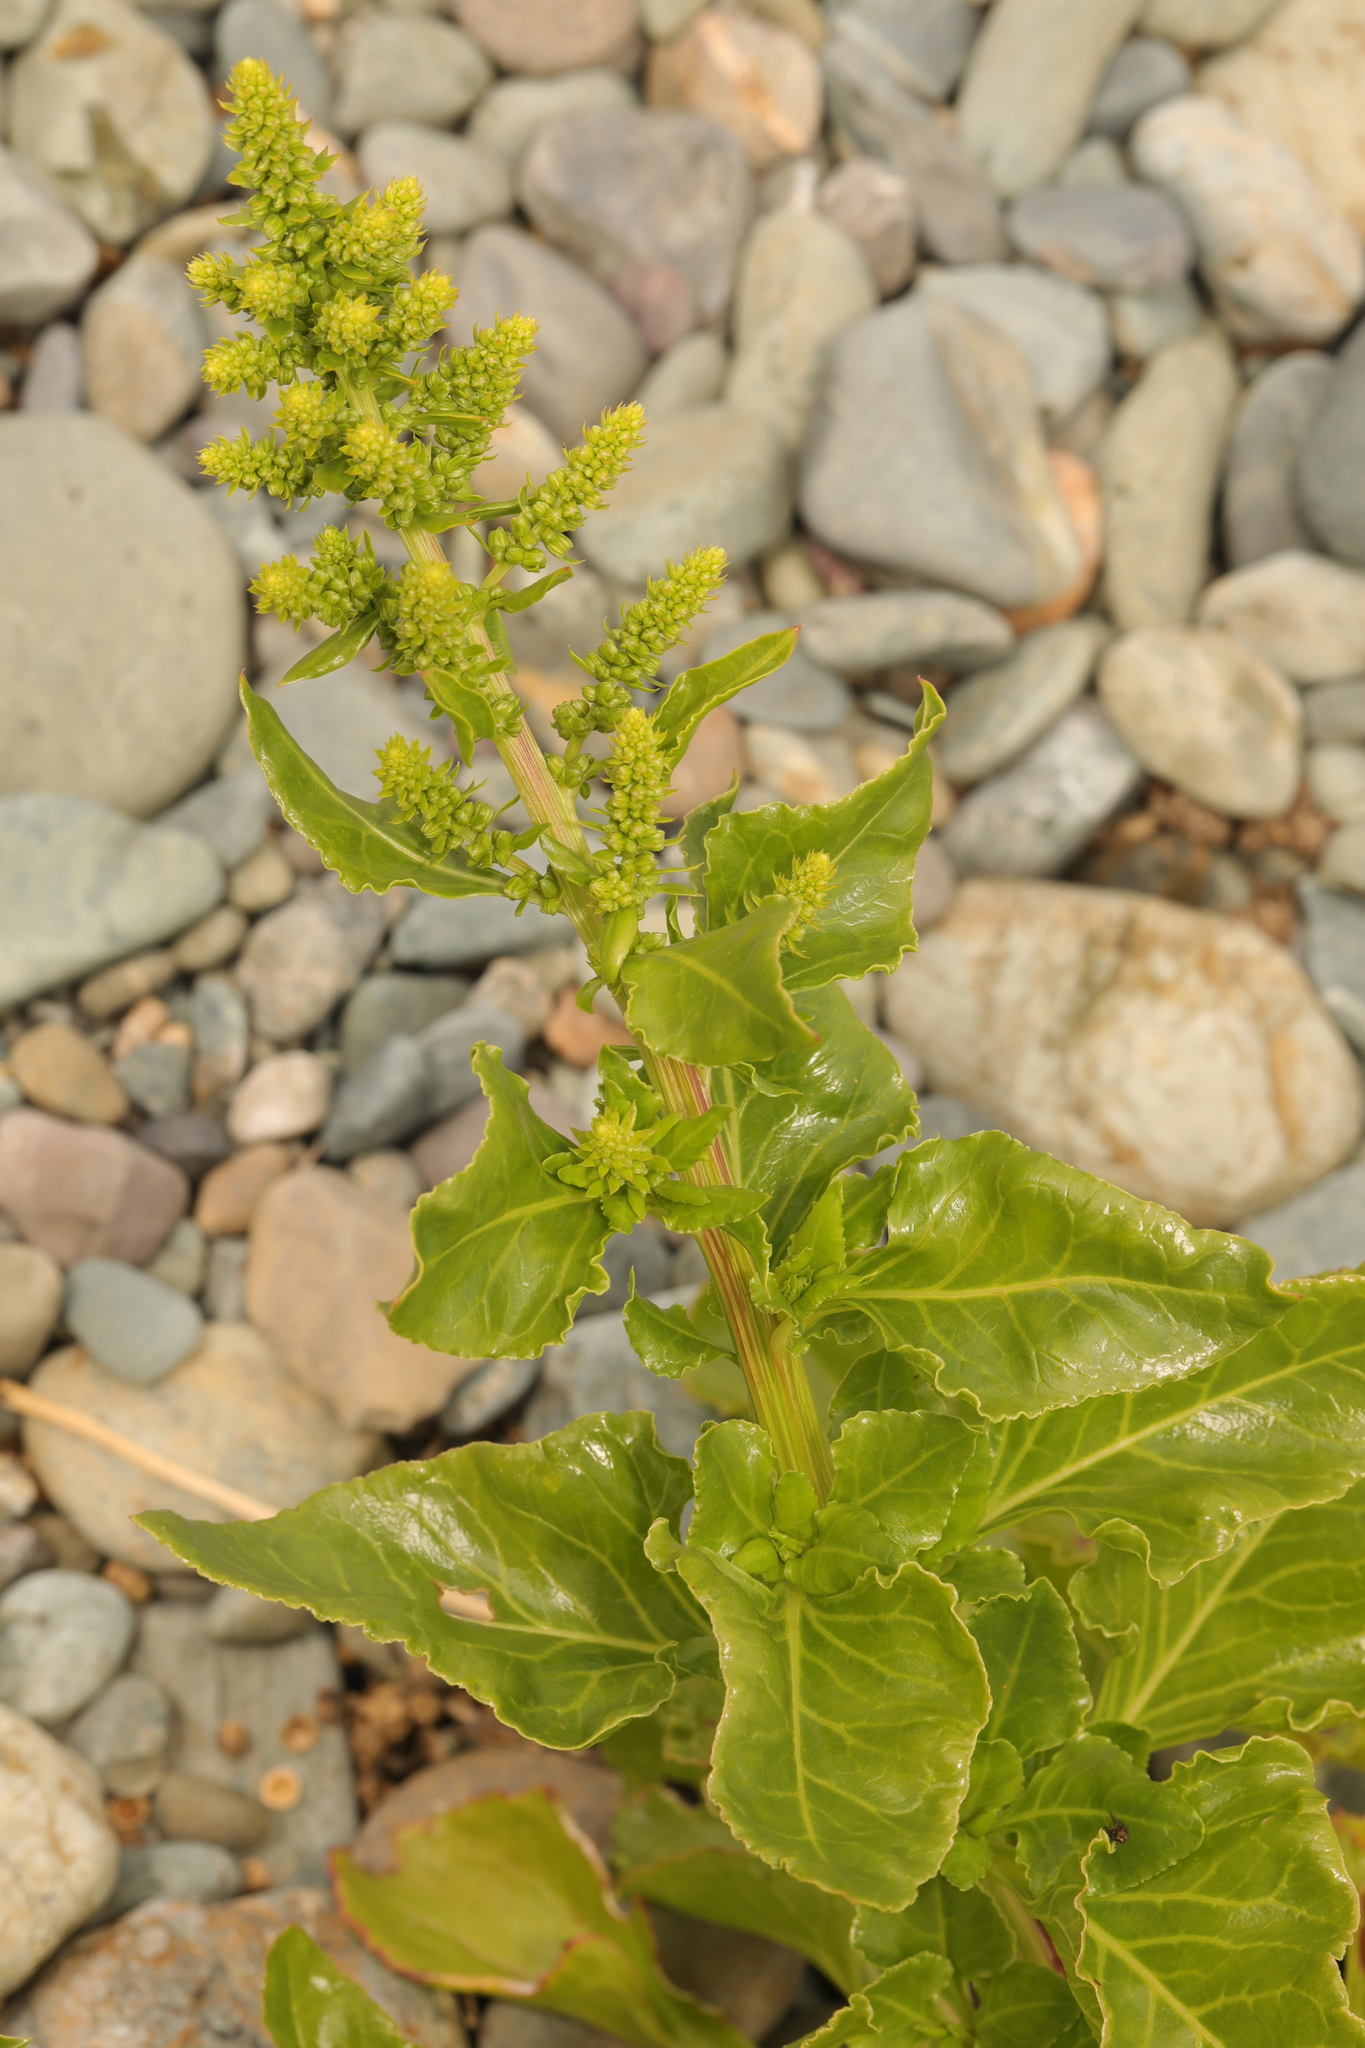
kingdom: Plantae
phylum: Tracheophyta
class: Magnoliopsida
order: Caryophyllales
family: Amaranthaceae
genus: Beta
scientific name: Beta vulgaris
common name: Beet
